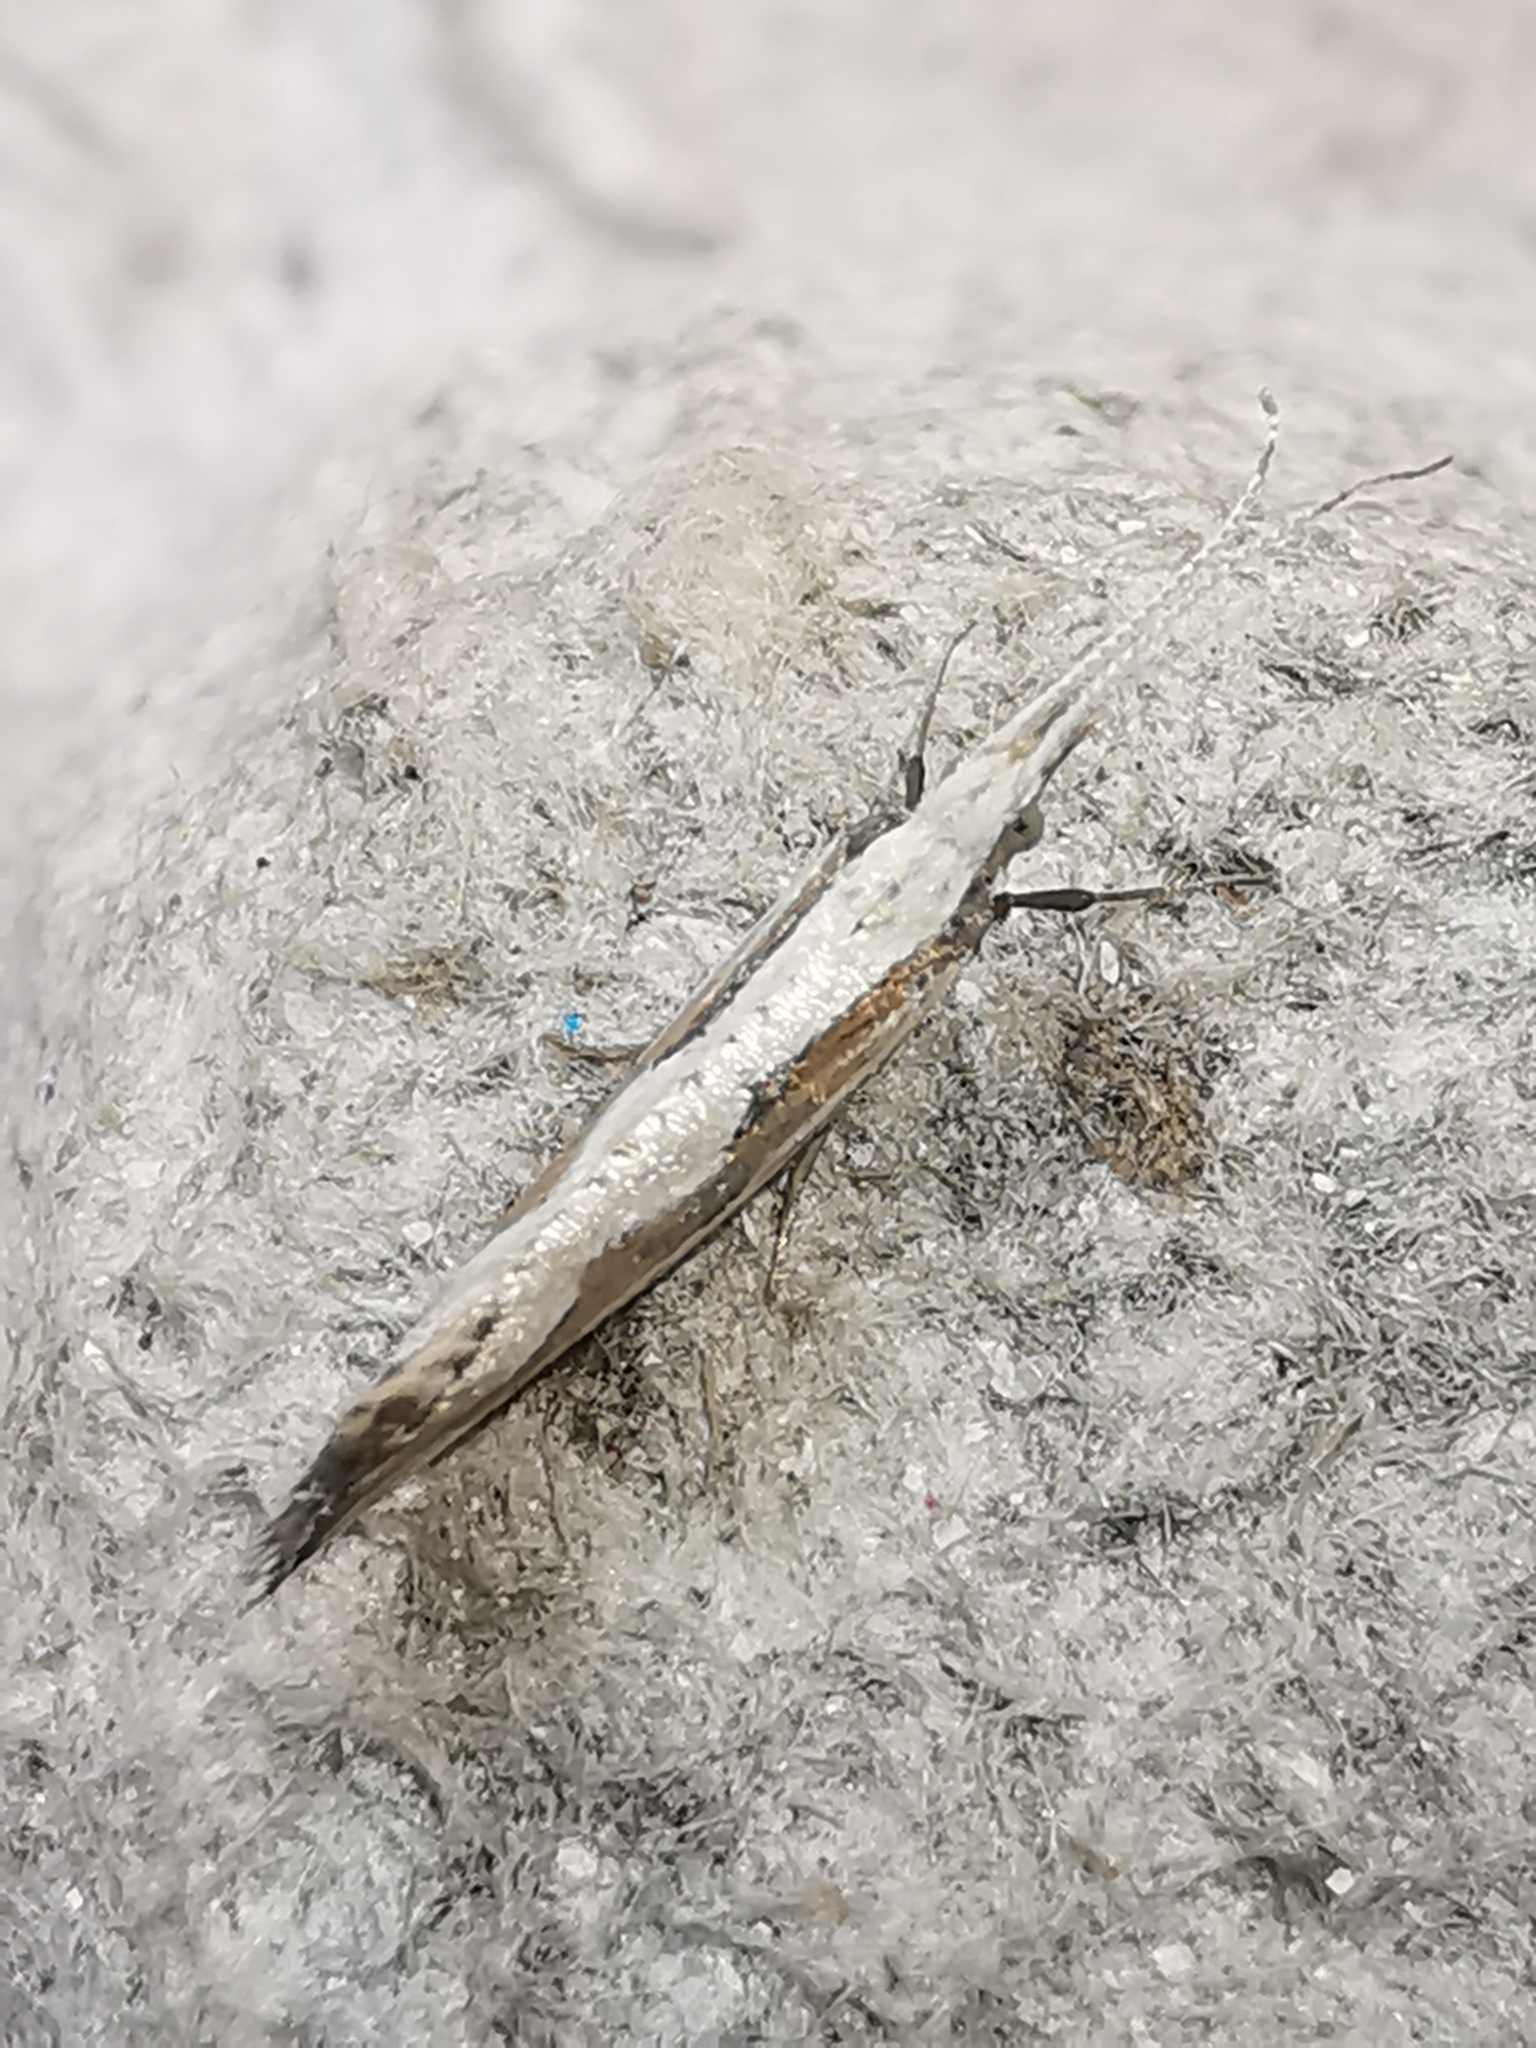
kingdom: Animalia
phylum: Arthropoda
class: Insecta
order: Lepidoptera
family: Plutellidae
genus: Plutella
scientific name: Plutella xylostella
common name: Diamond-back moth
